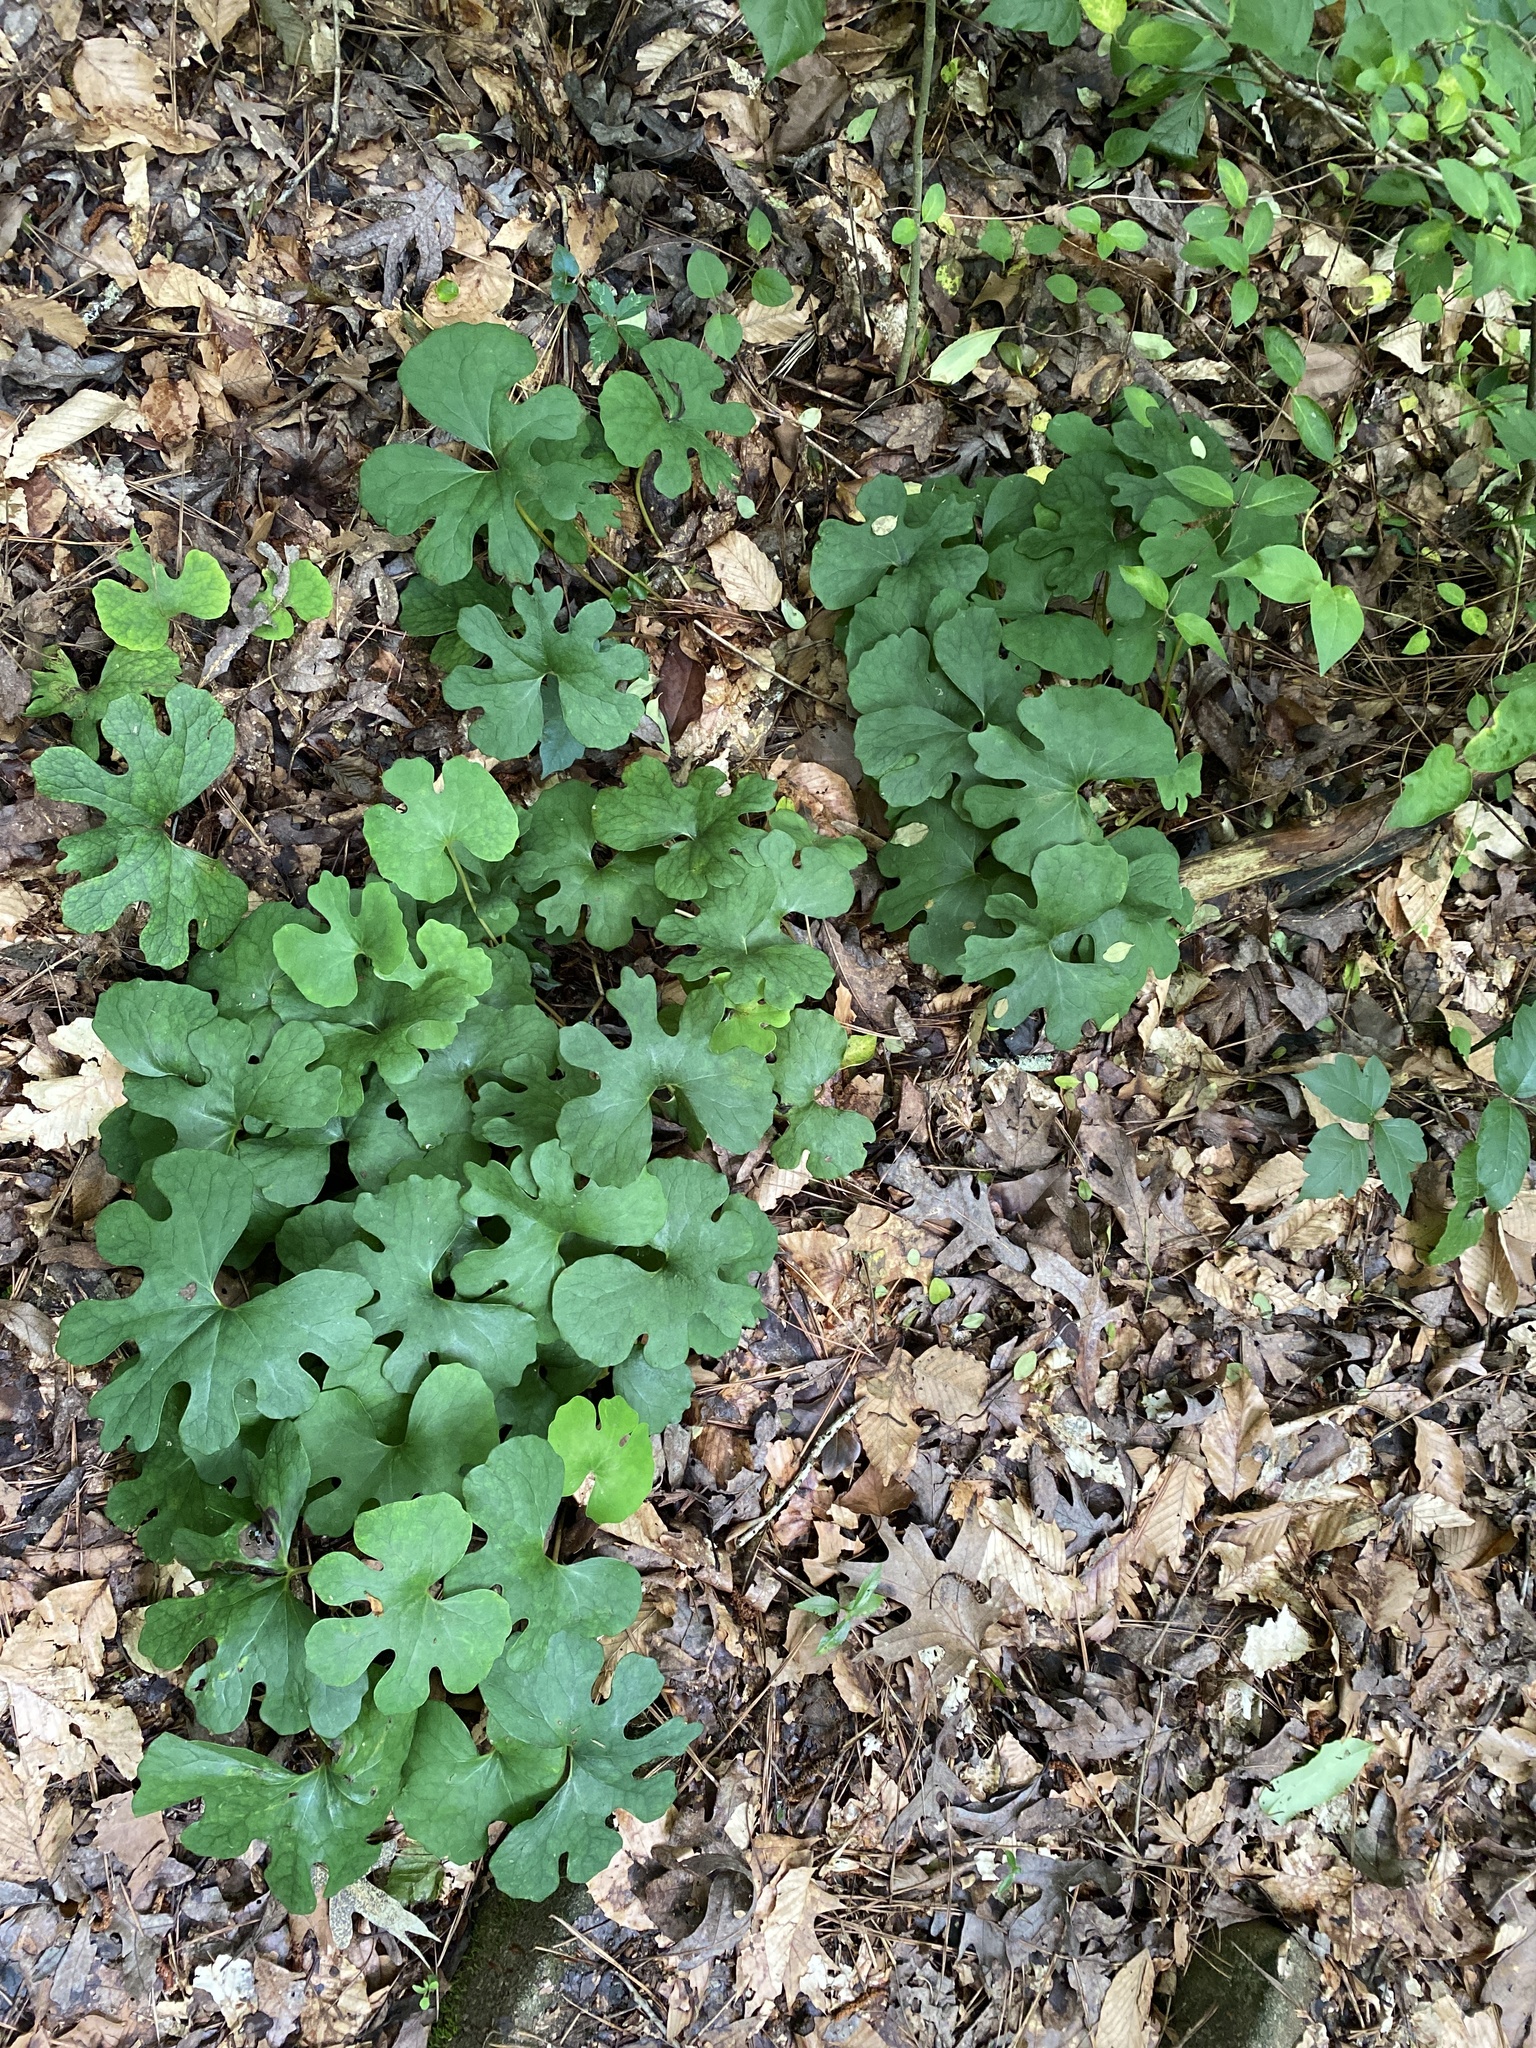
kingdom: Plantae
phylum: Tracheophyta
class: Magnoliopsida
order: Ranunculales
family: Papaveraceae
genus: Sanguinaria
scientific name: Sanguinaria canadensis
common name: Bloodroot
